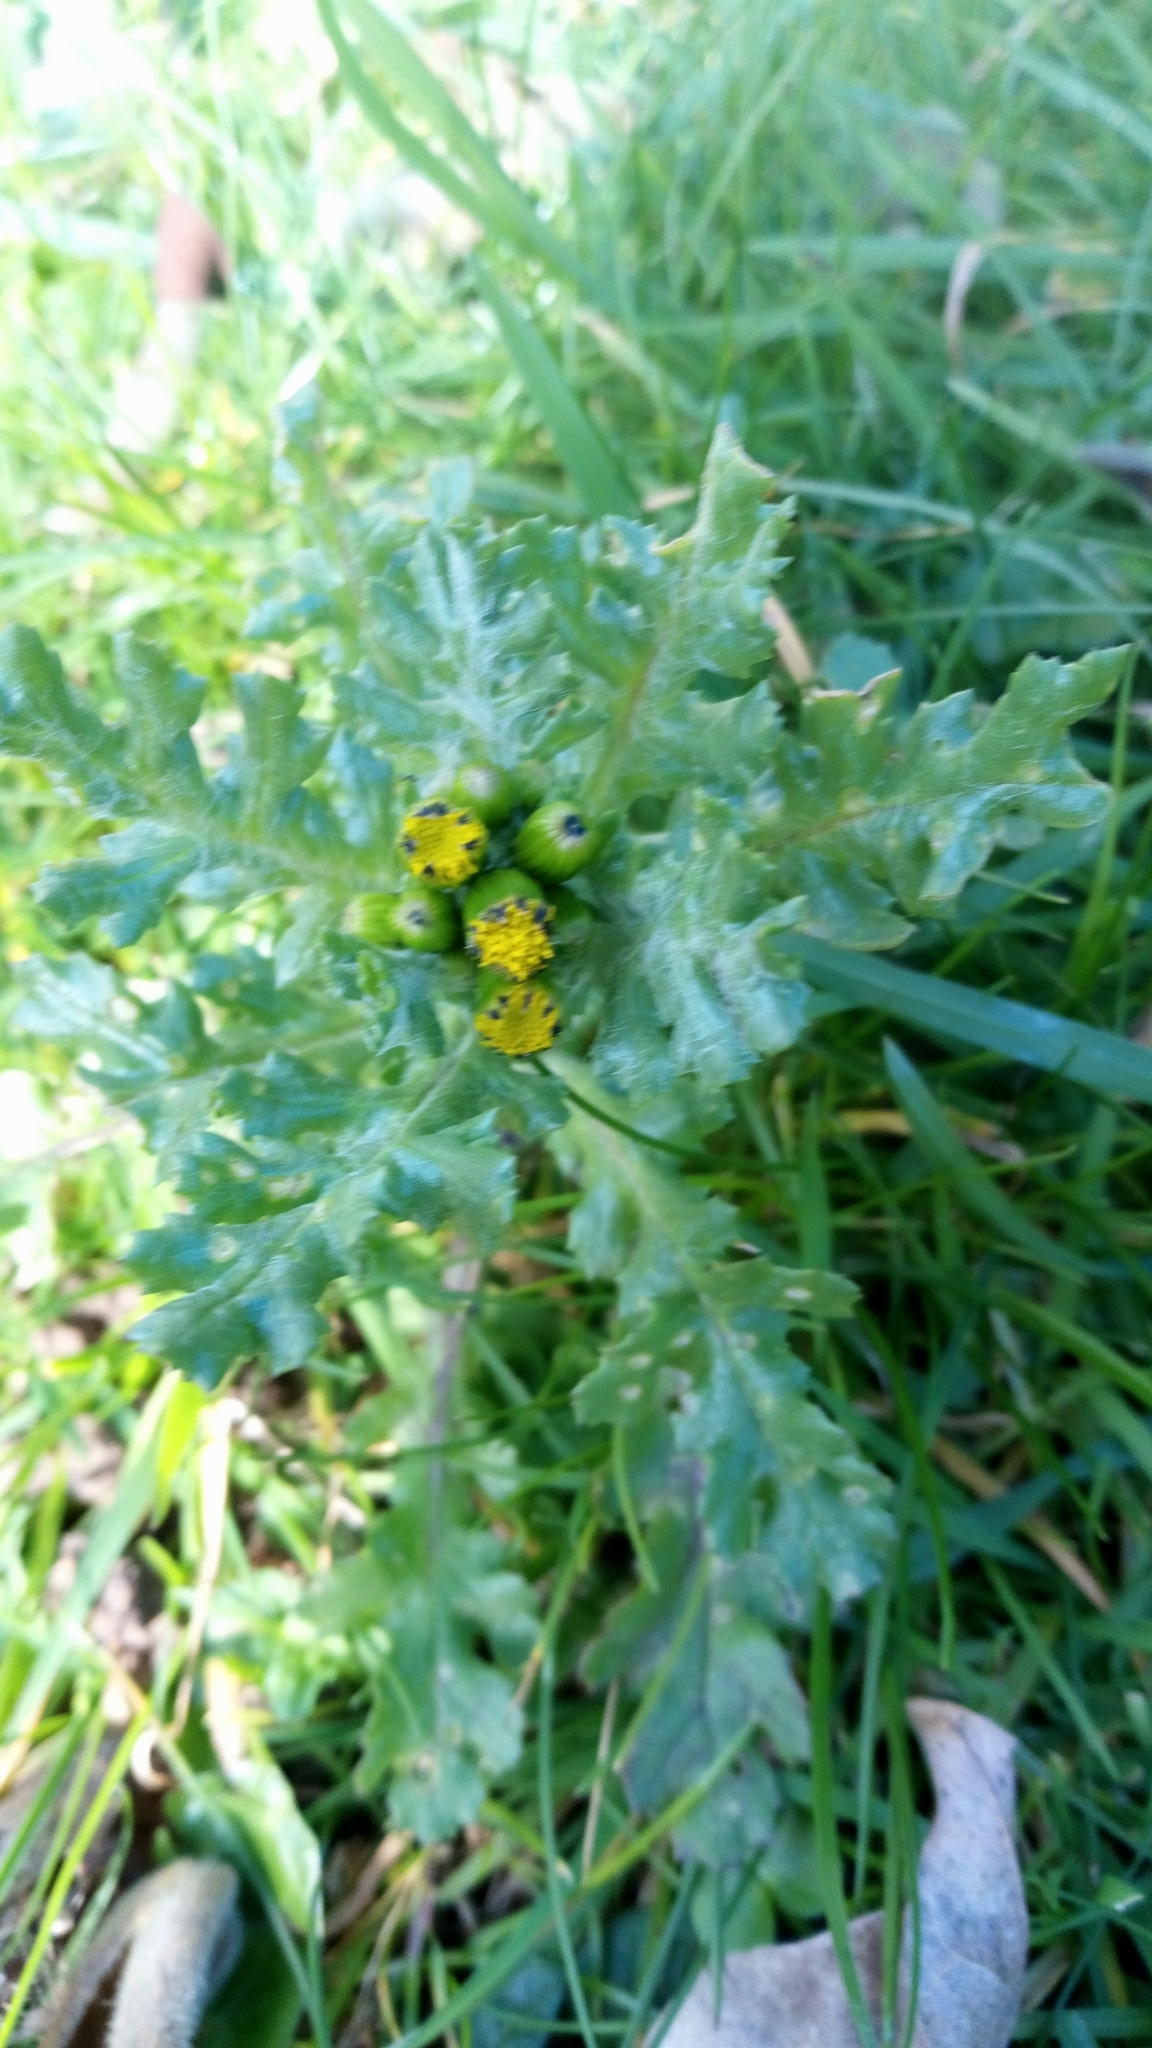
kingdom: Plantae
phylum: Tracheophyta
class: Magnoliopsida
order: Asterales
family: Asteraceae
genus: Senecio
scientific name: Senecio vulgaris
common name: Old-man-in-the-spring
